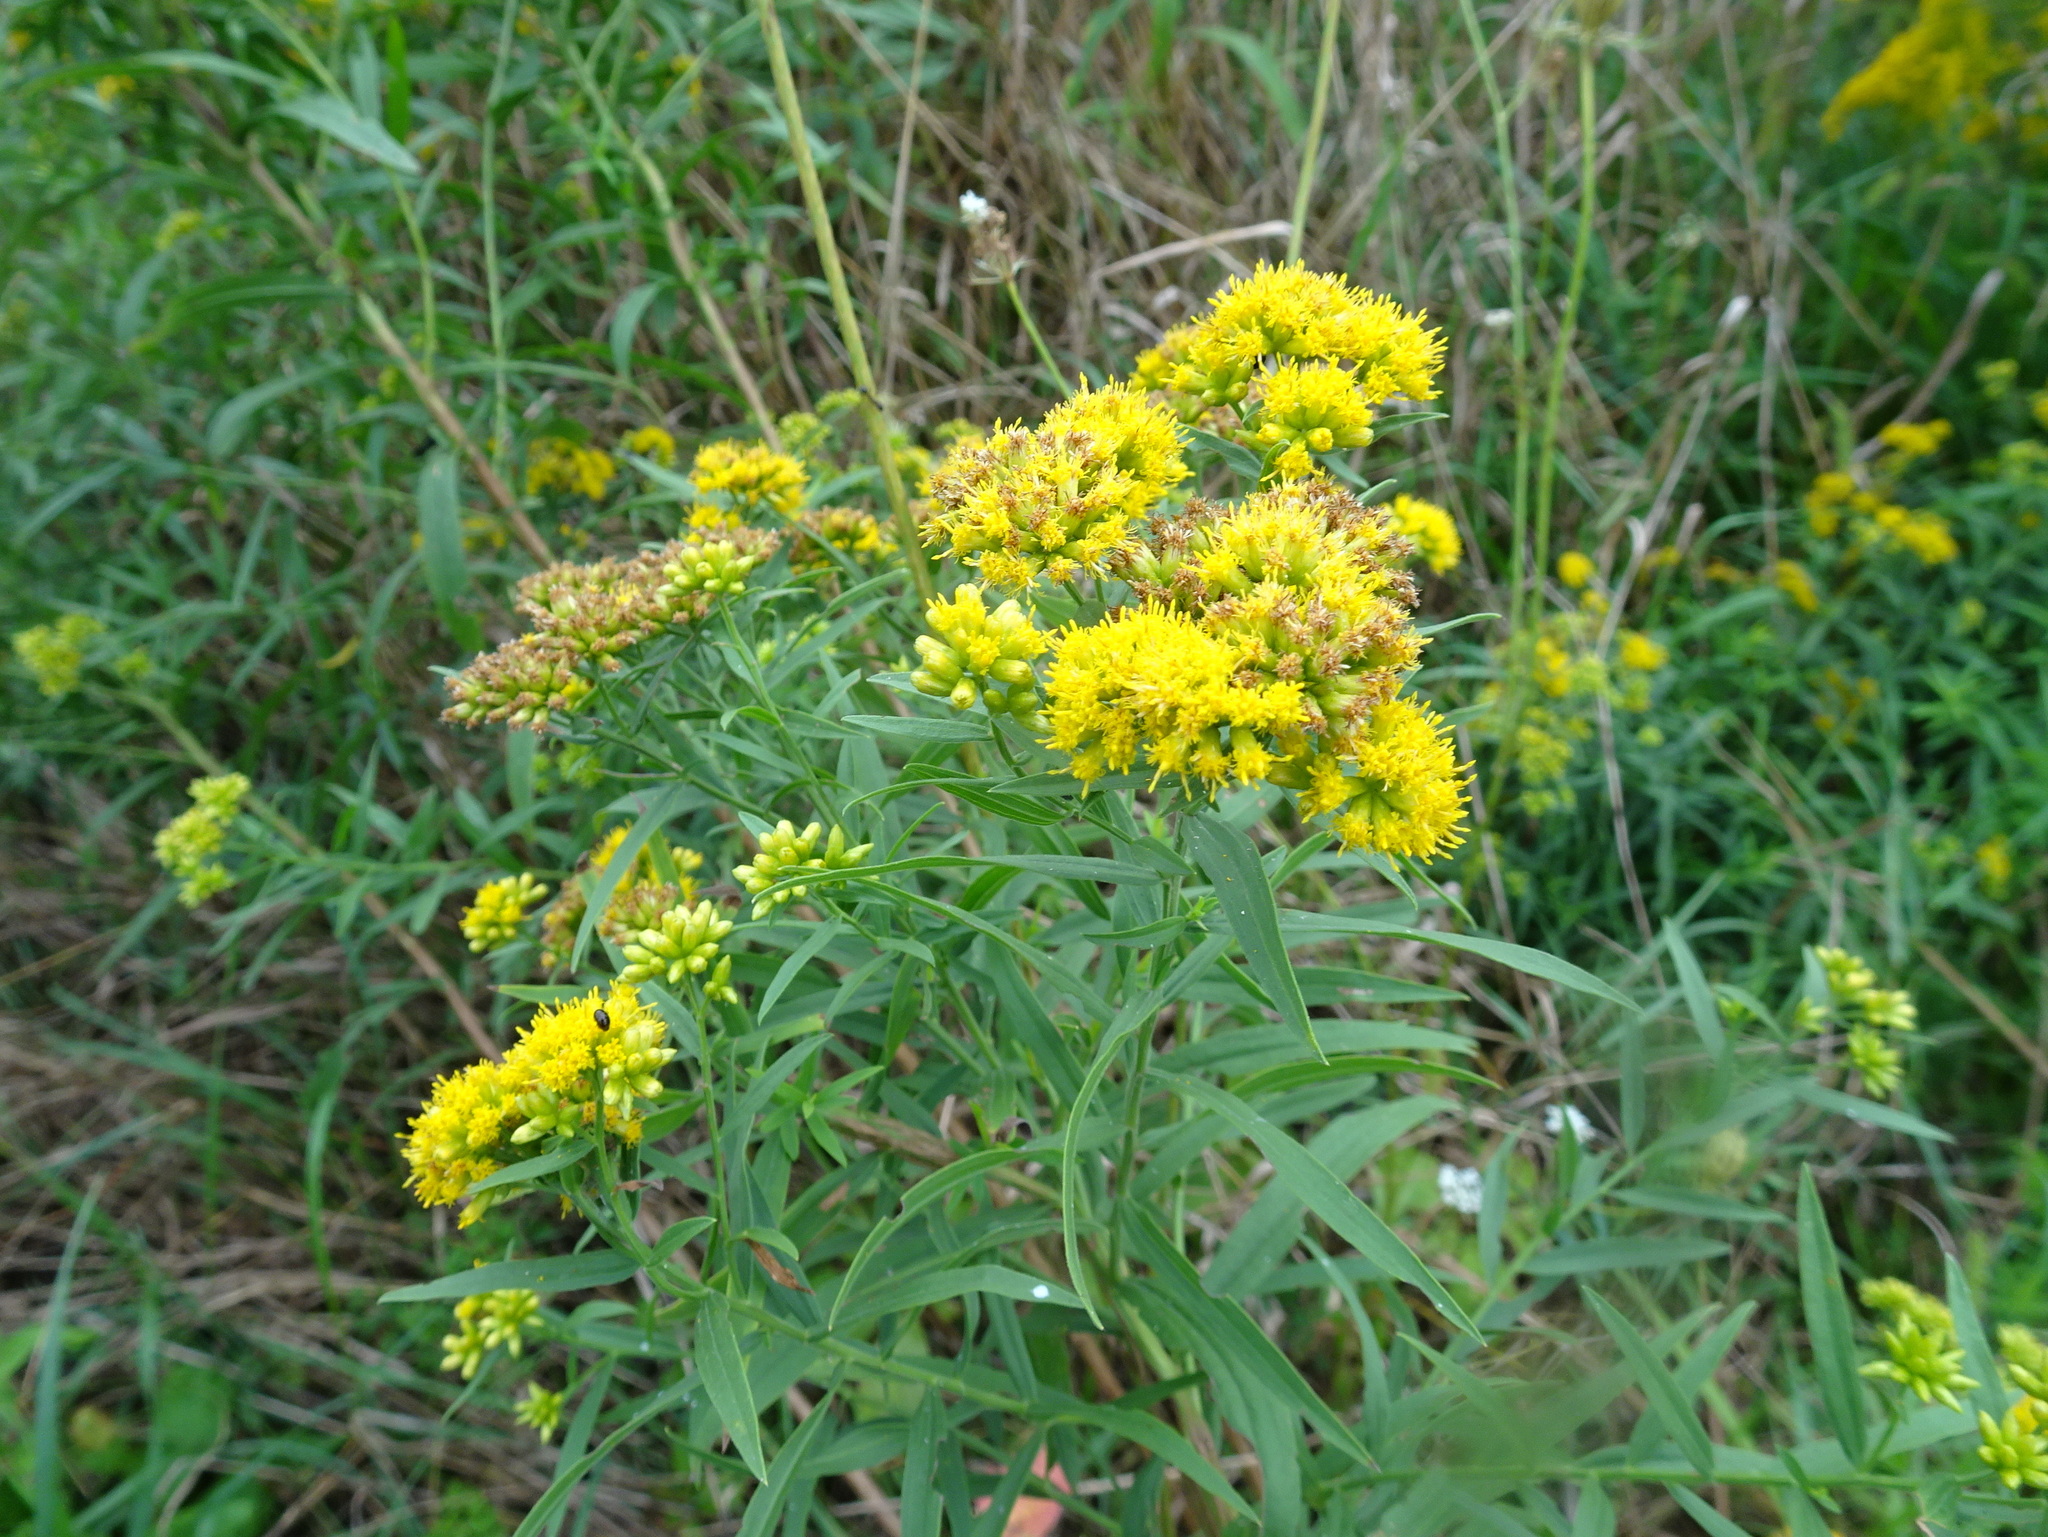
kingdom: Plantae
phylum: Tracheophyta
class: Magnoliopsida
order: Asterales
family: Asteraceae
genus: Euthamia
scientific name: Euthamia graminifolia
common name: Common goldentop
